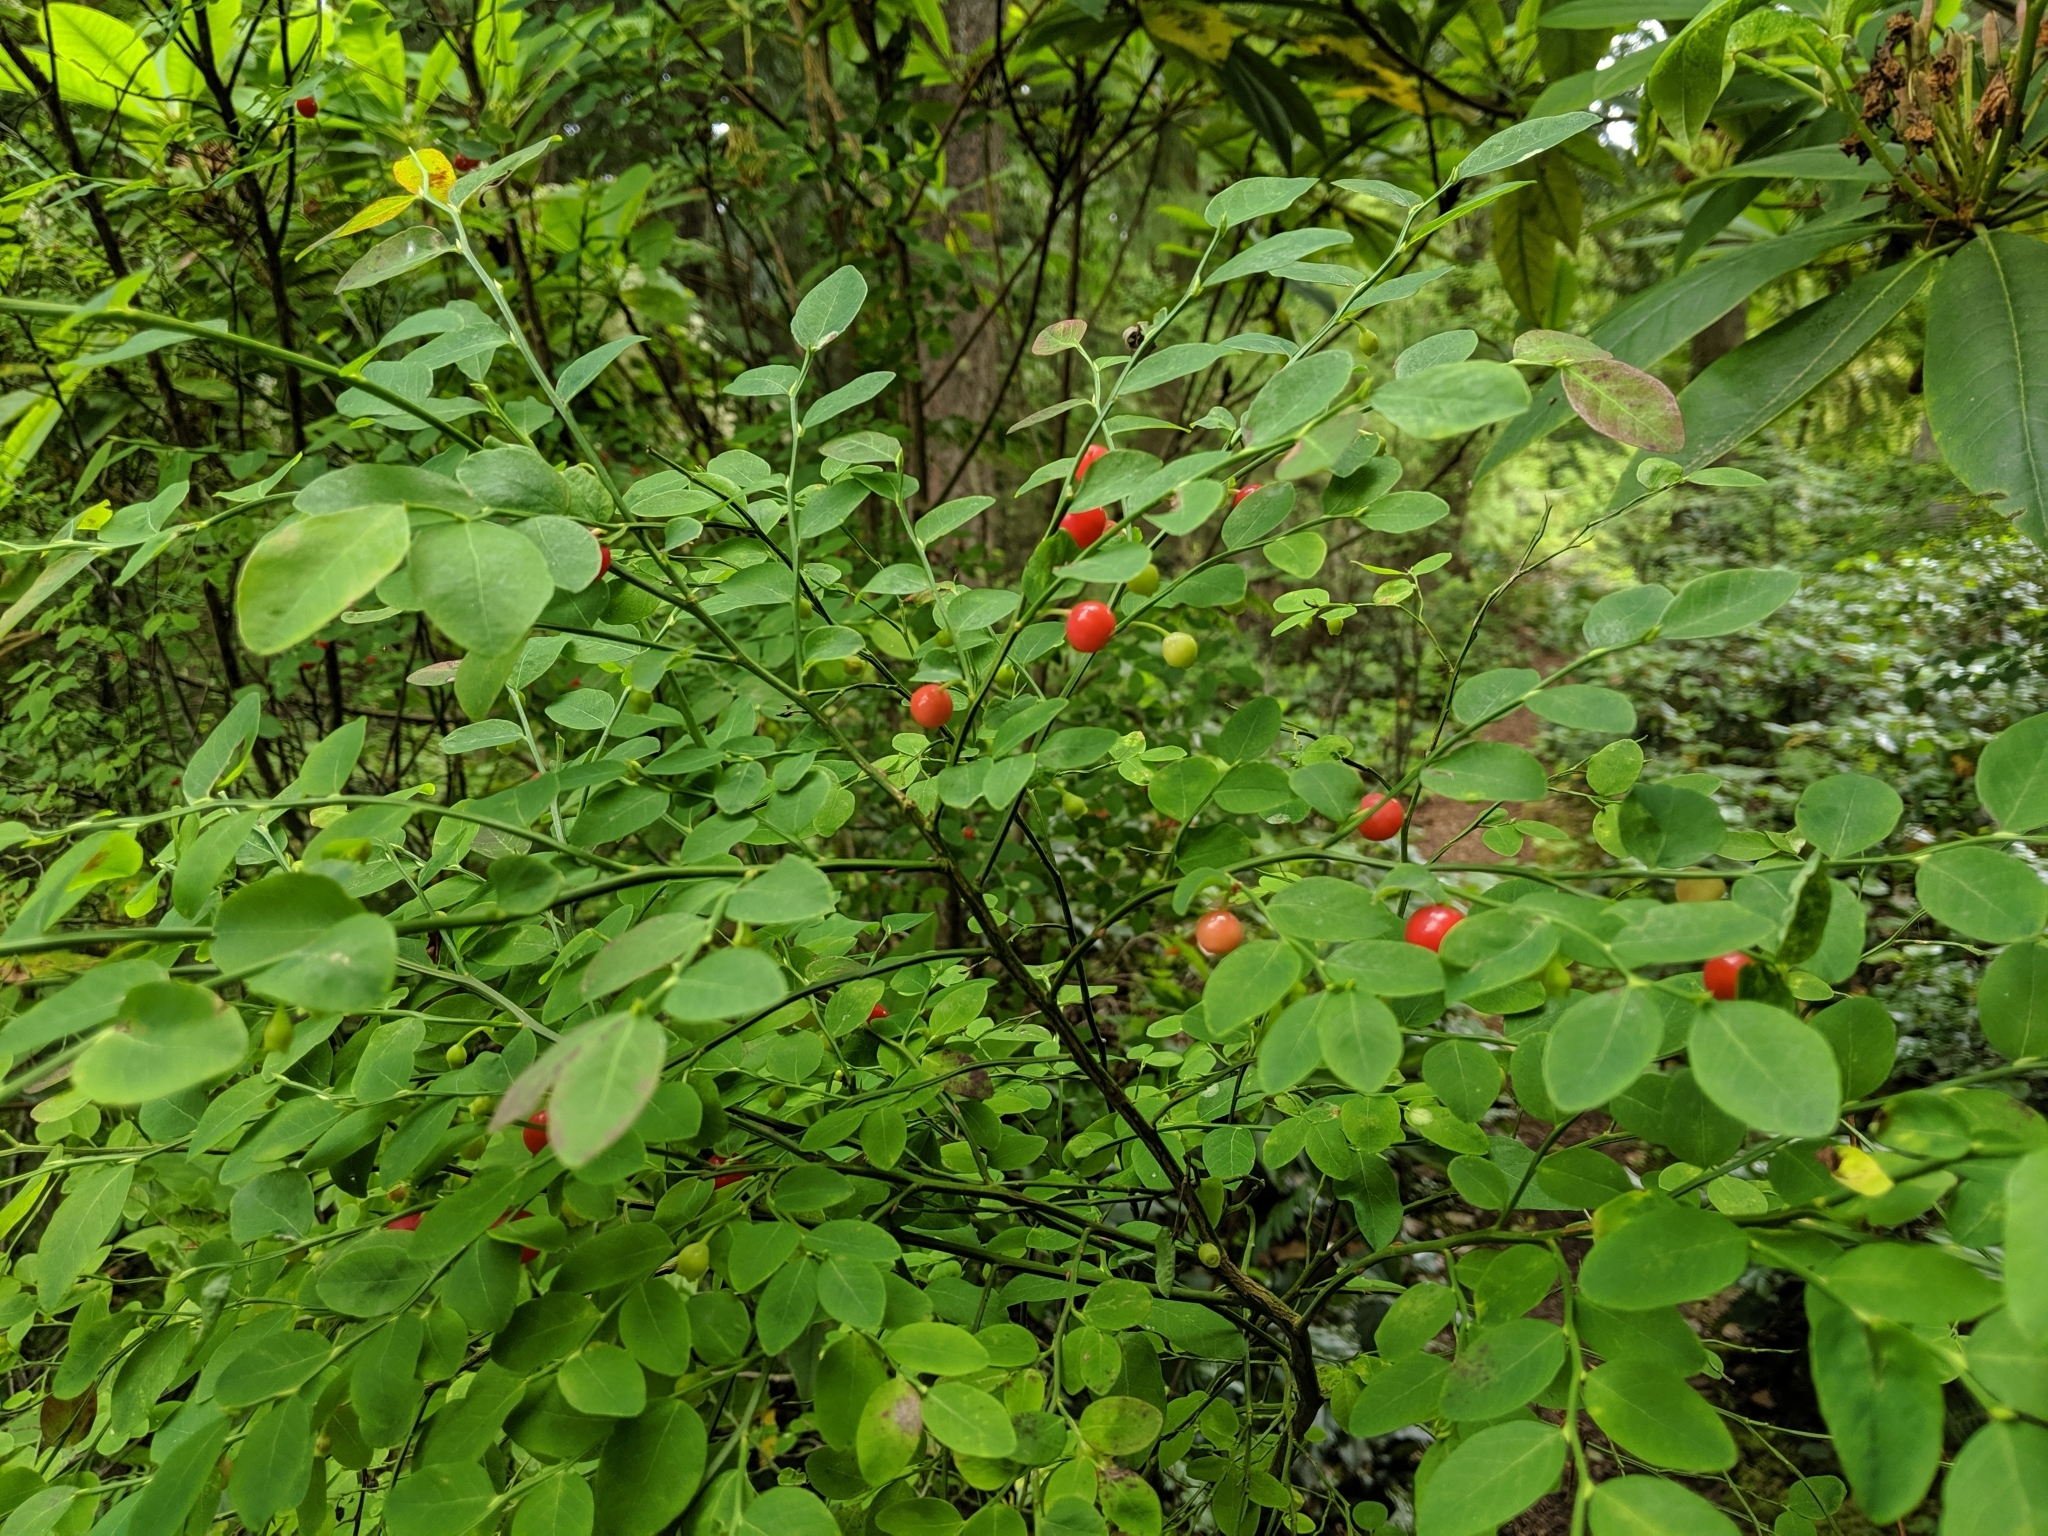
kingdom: Plantae
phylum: Tracheophyta
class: Magnoliopsida
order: Ericales
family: Ericaceae
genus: Vaccinium
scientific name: Vaccinium parvifolium
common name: Red-huckleberry
